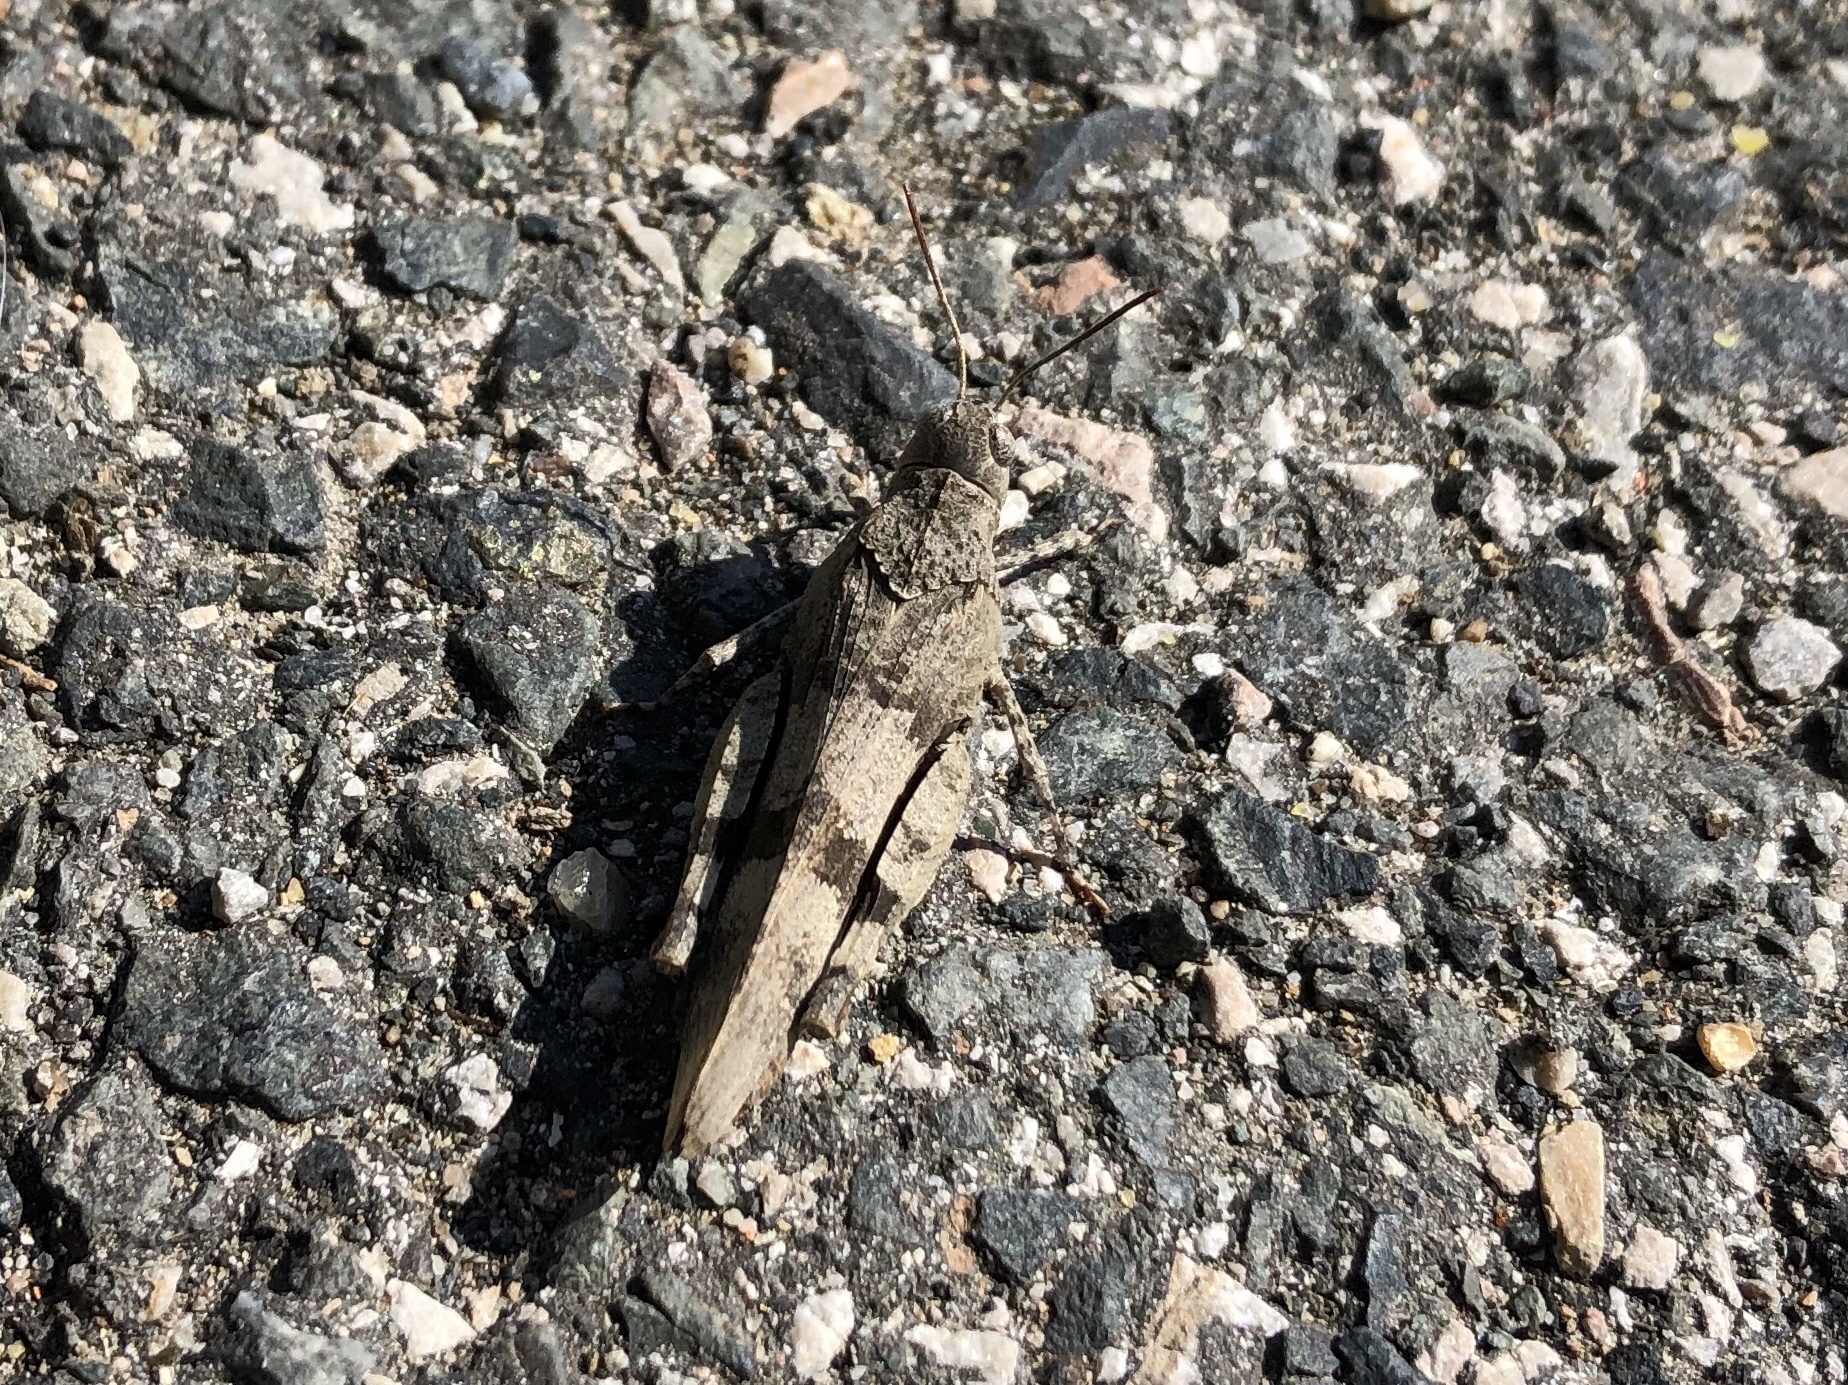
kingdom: Animalia
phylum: Arthropoda
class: Insecta
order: Orthoptera
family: Acrididae
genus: Oedipoda
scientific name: Oedipoda caerulescens
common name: Blue-winged grasshopper
